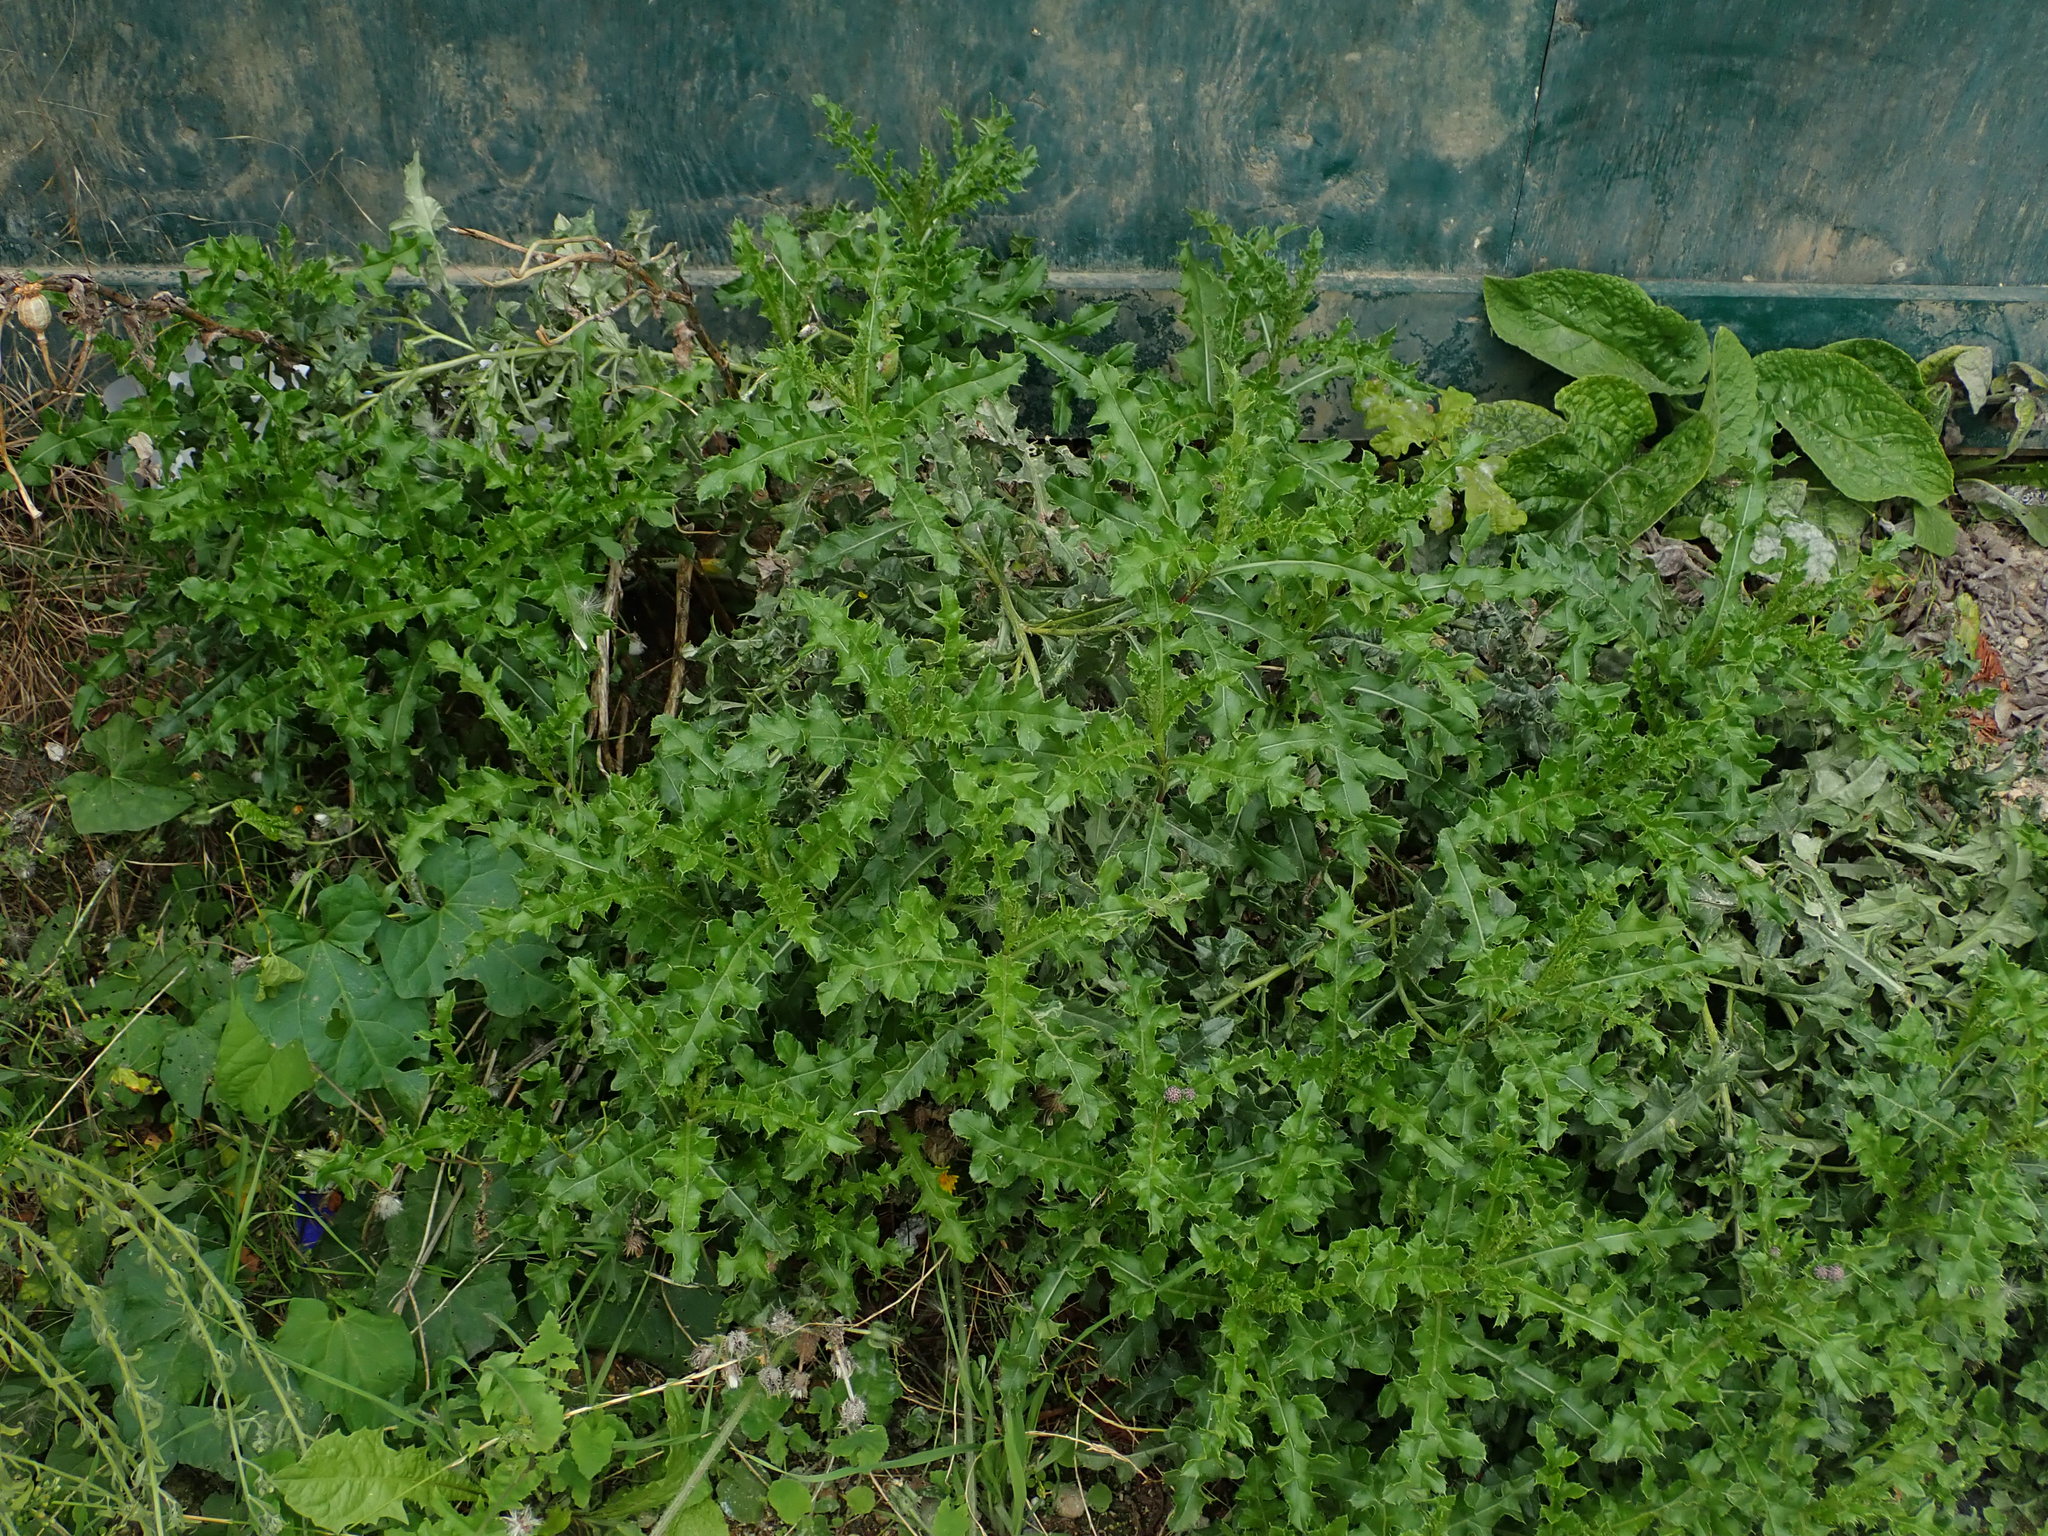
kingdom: Plantae
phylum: Tracheophyta
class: Magnoliopsida
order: Asterales
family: Asteraceae
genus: Cirsium
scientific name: Cirsium arvense
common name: Creeping thistle
